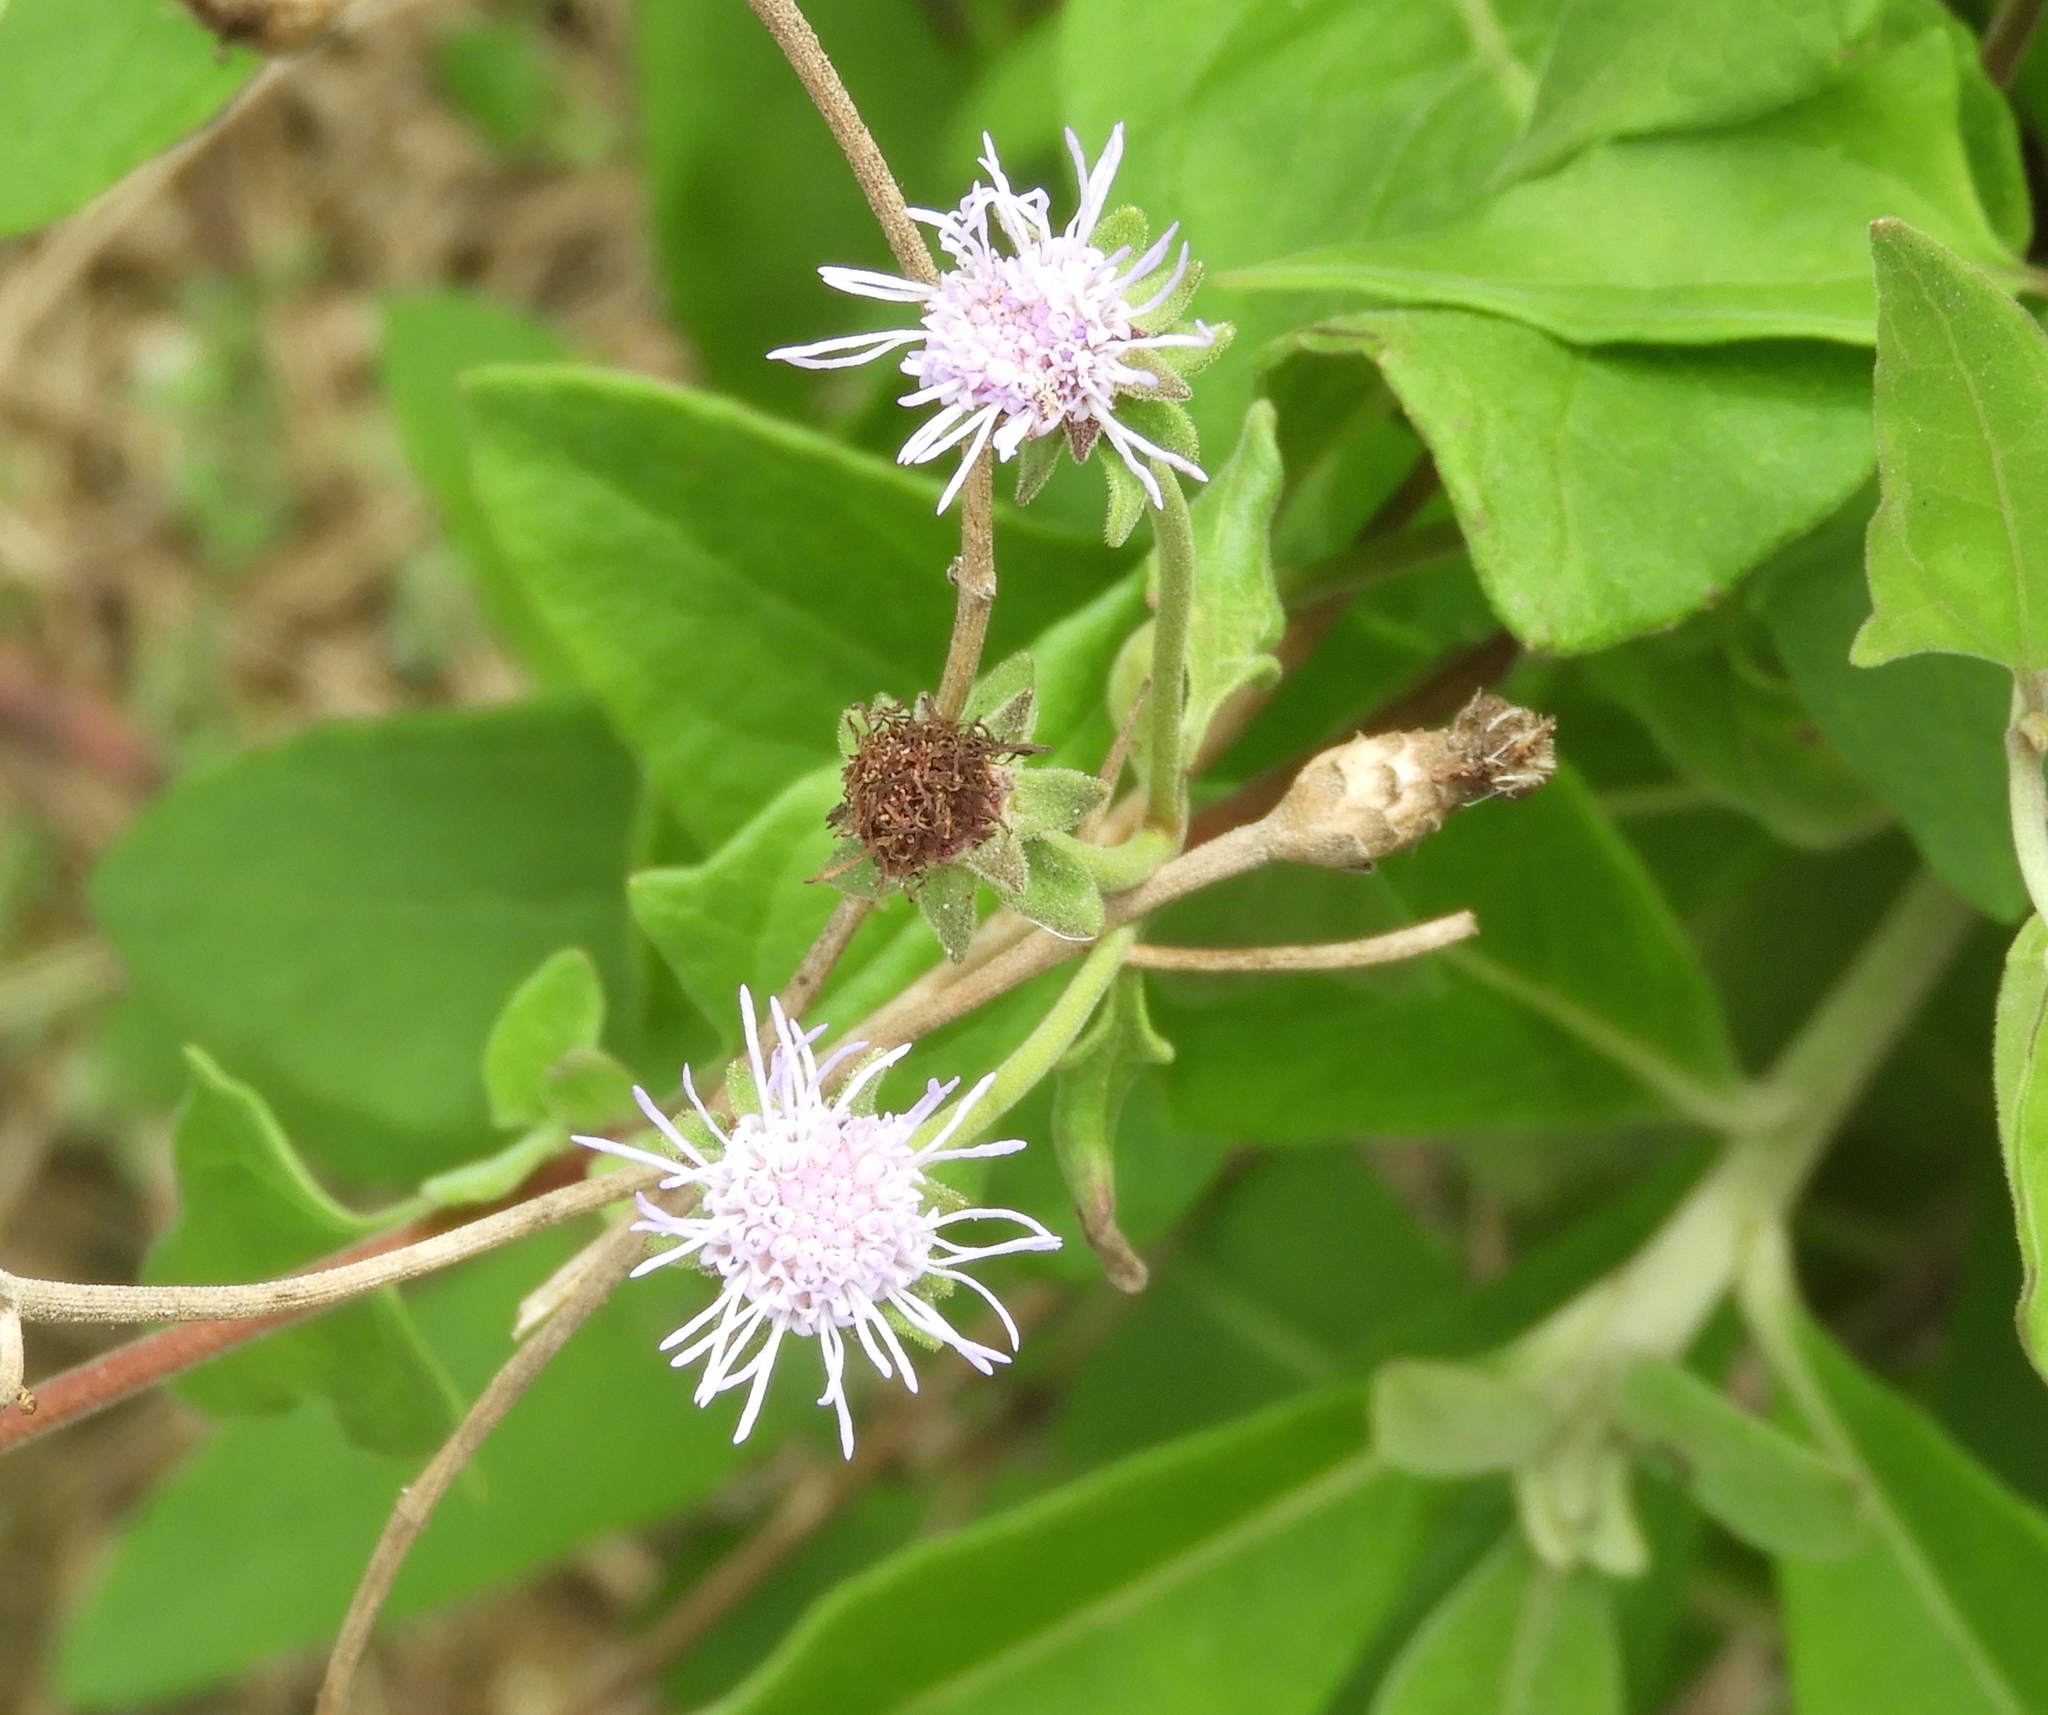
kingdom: Plantae
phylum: Tracheophyta
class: Magnoliopsida
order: Asterales
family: Asteraceae
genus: Chromolaena
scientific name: Chromolaena sagittata
